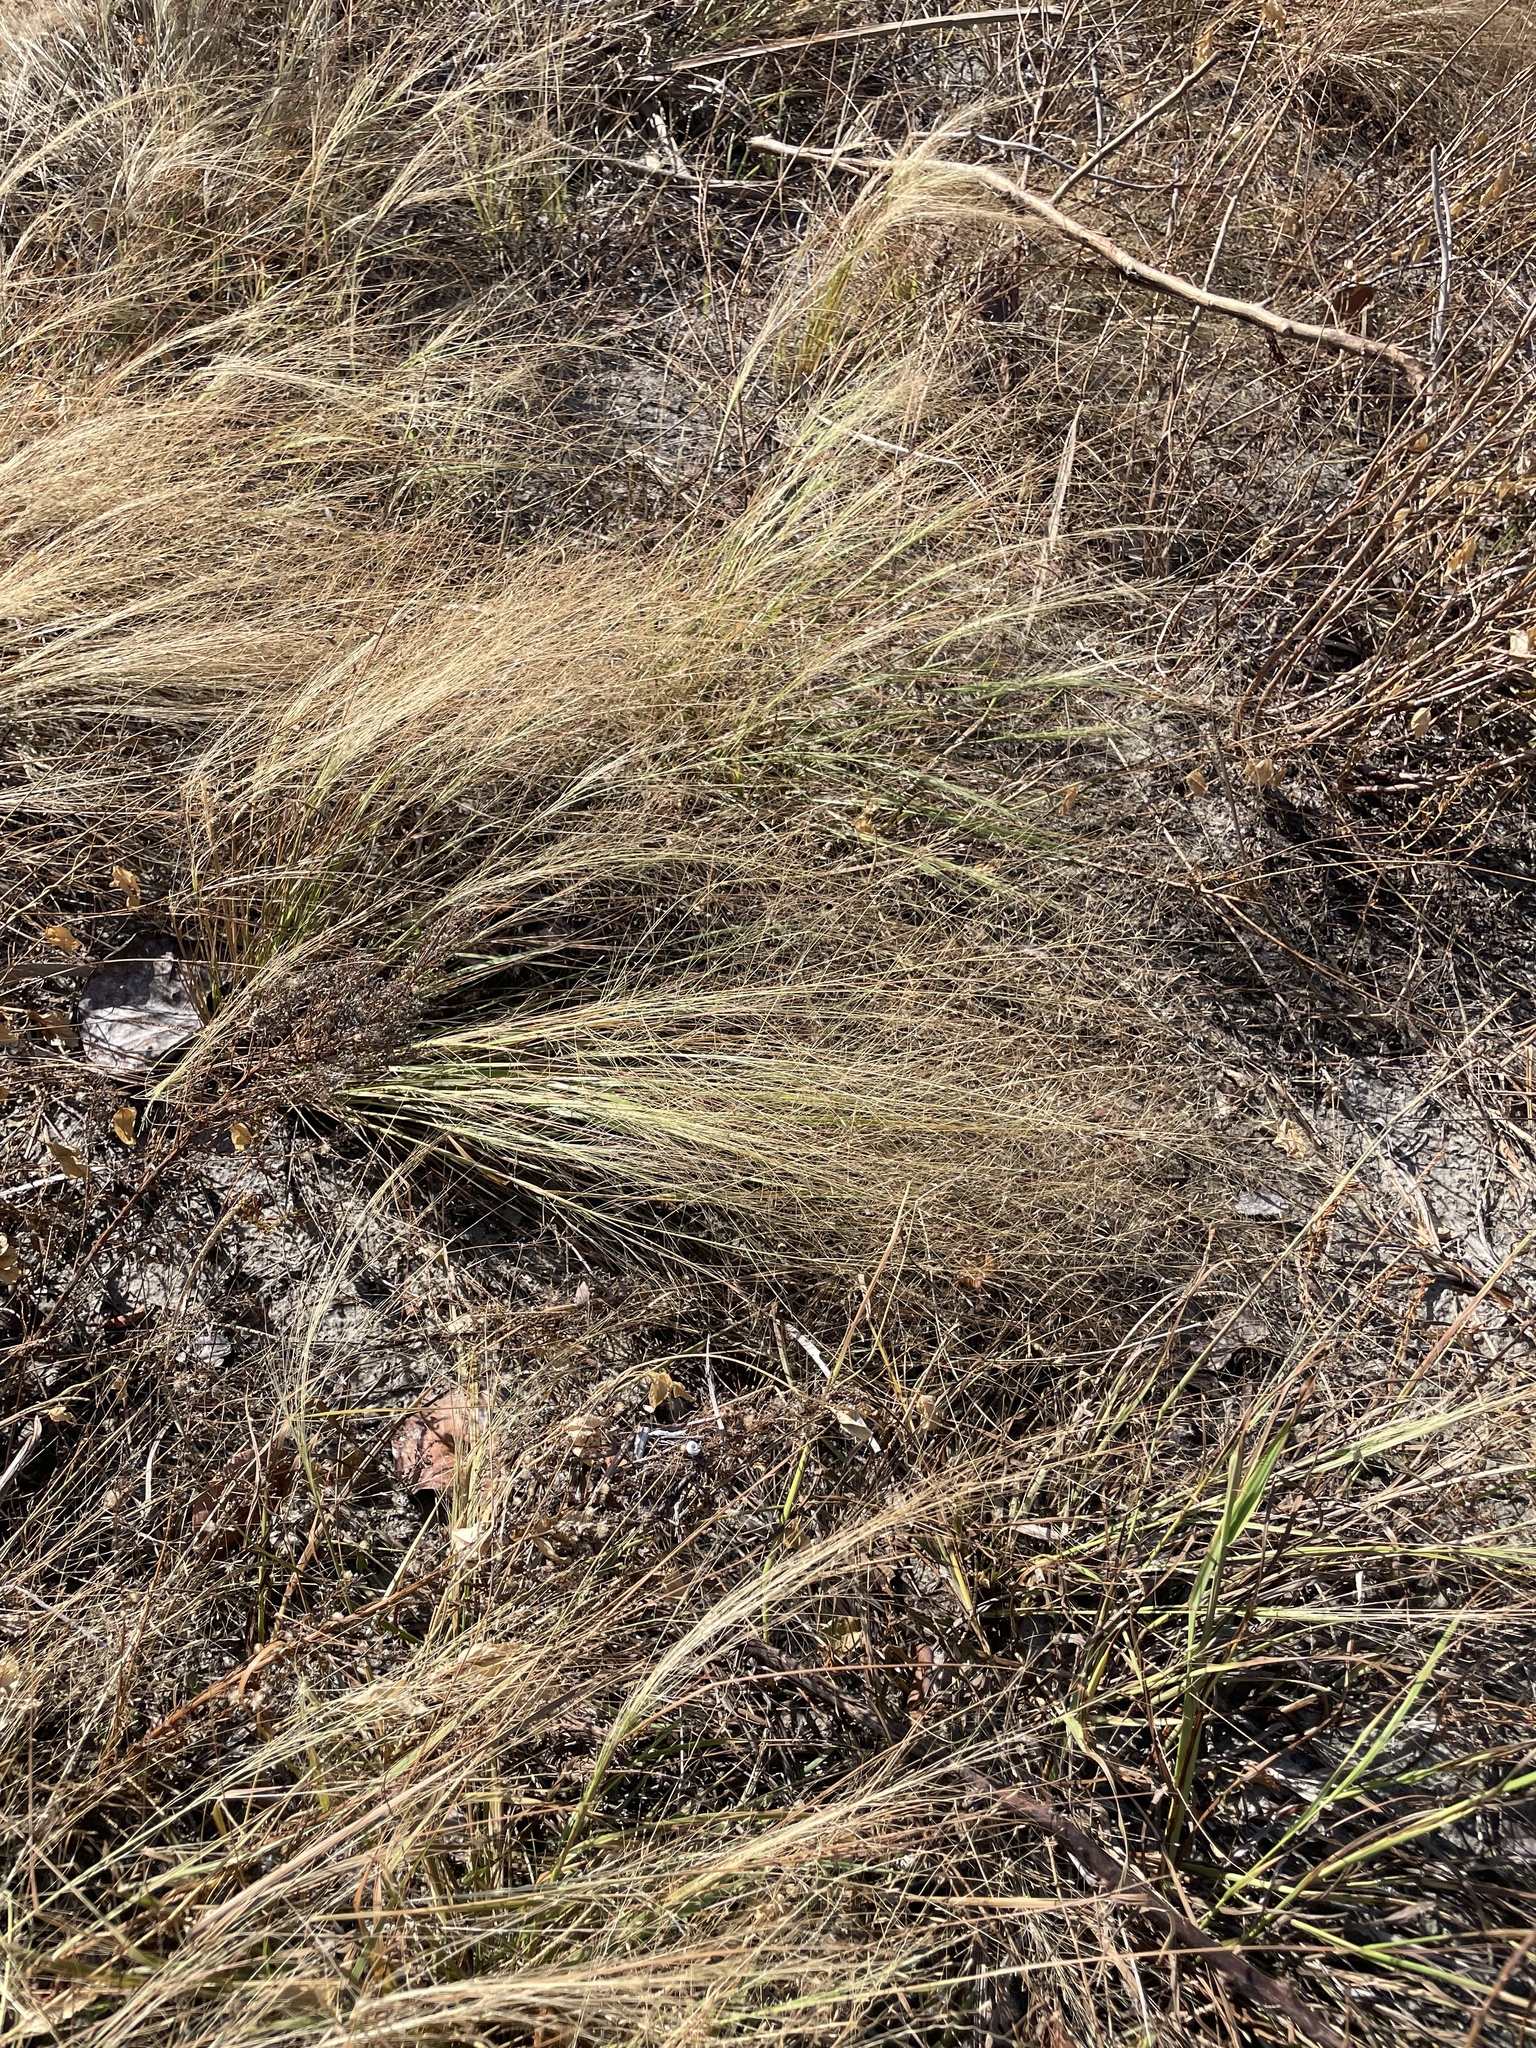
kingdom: Plantae
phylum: Tracheophyta
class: Liliopsida
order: Poales
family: Poaceae
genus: Eragrostis
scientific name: Eragrostis elliottii
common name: Elliott's love grass
